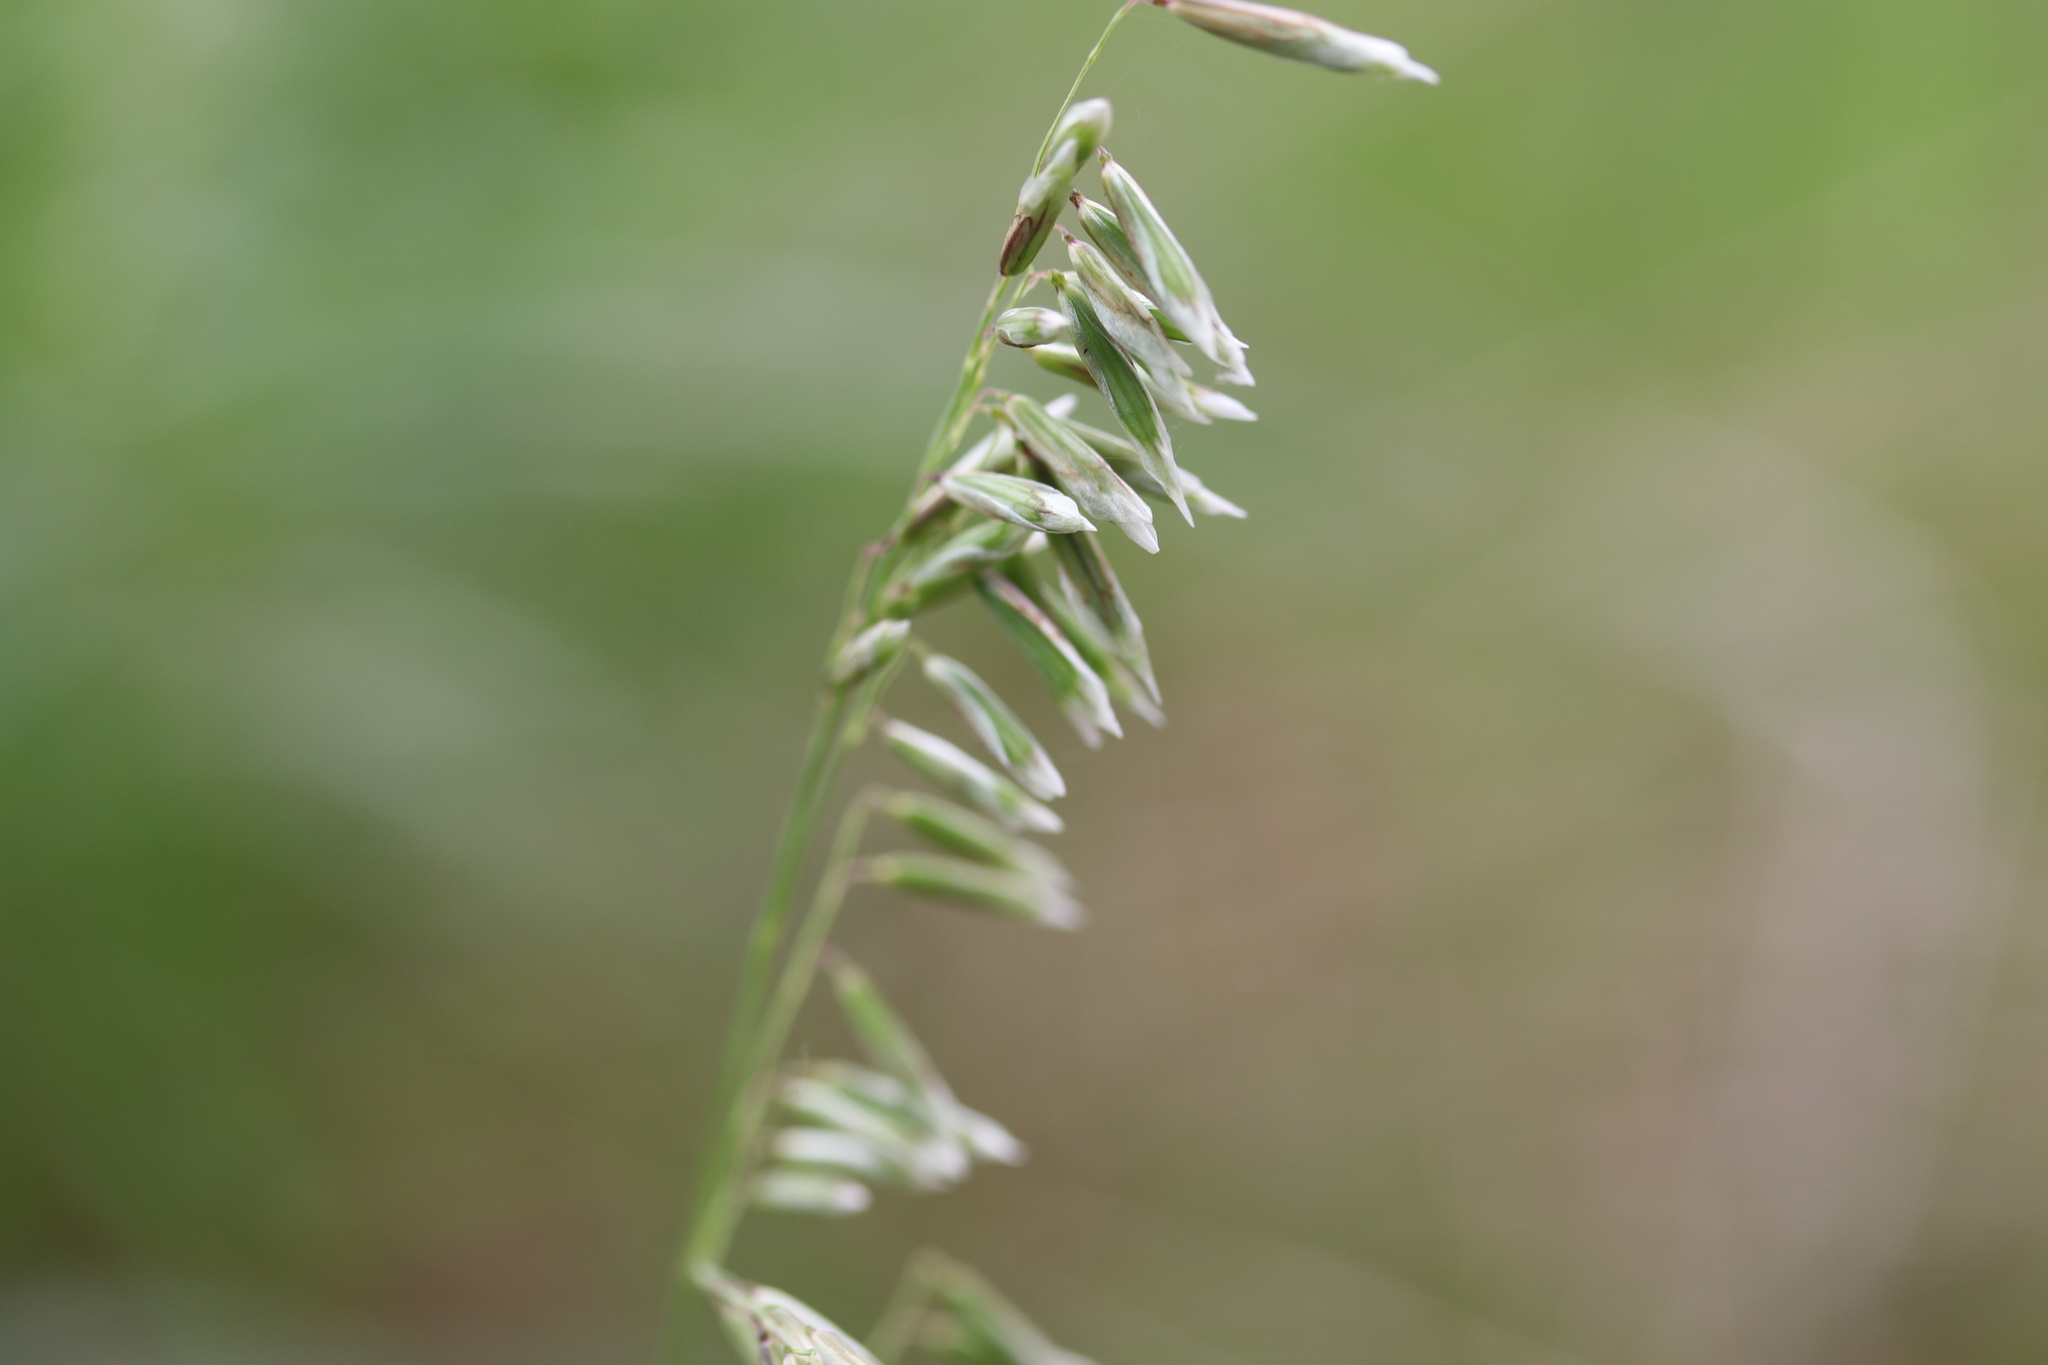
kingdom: Plantae
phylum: Tracheophyta
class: Liliopsida
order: Poales
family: Poaceae
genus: Melica
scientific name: Melica nitens
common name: Three-flower melic
